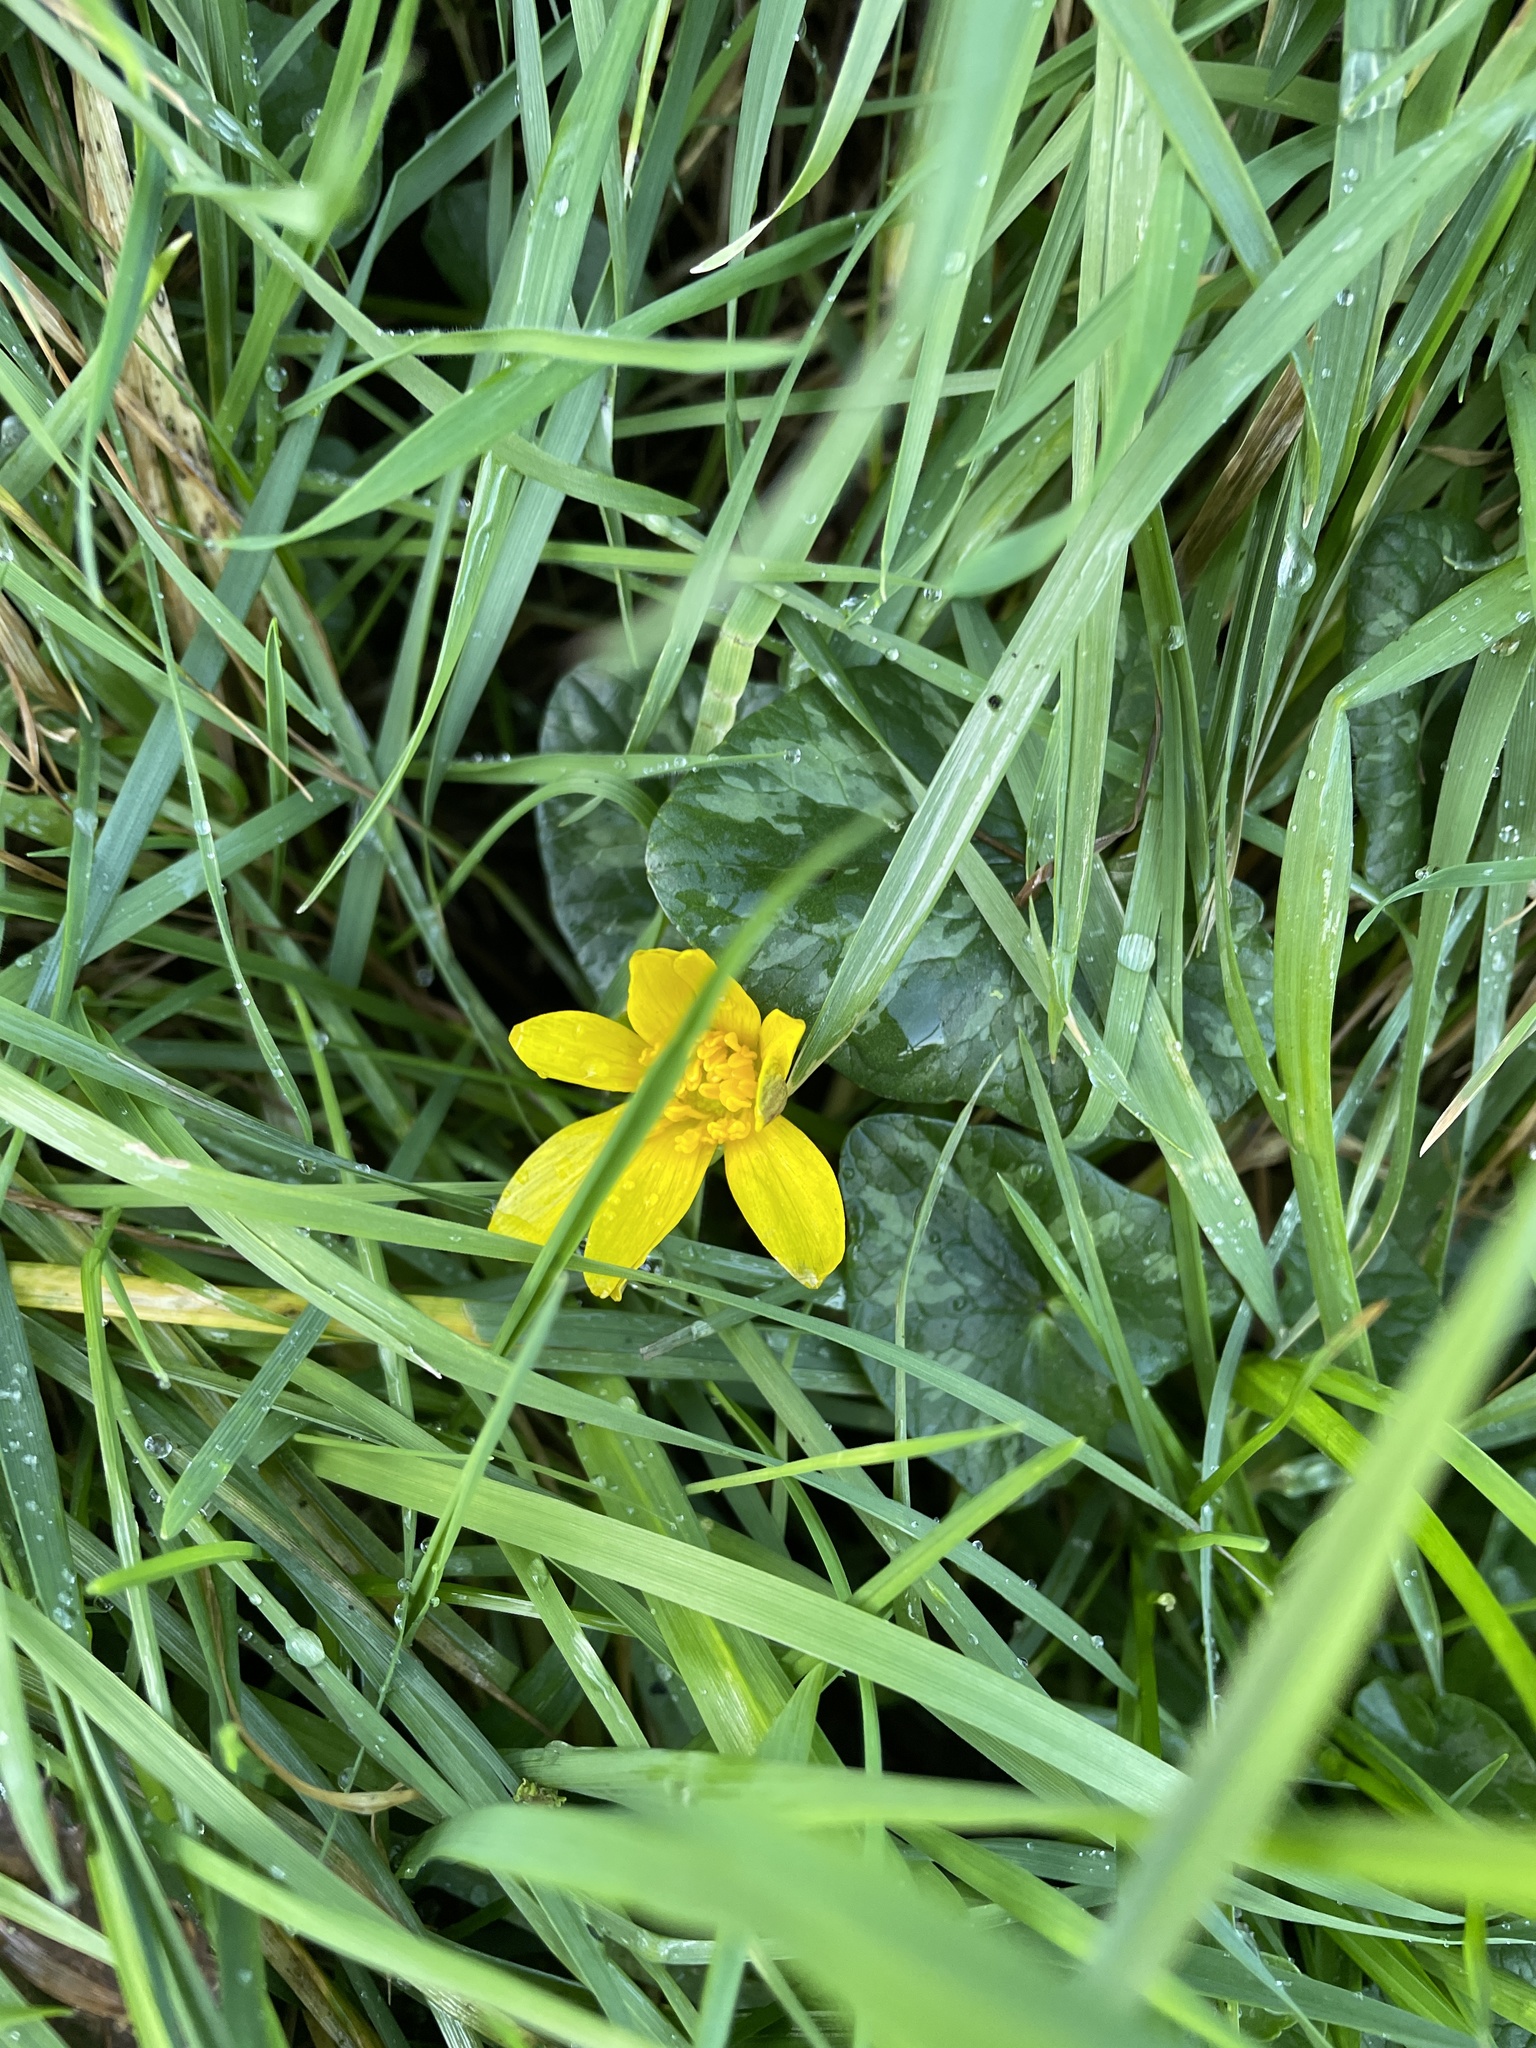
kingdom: Plantae
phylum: Tracheophyta
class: Magnoliopsida
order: Ranunculales
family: Ranunculaceae
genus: Ficaria
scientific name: Ficaria verna
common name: Lesser celandine
